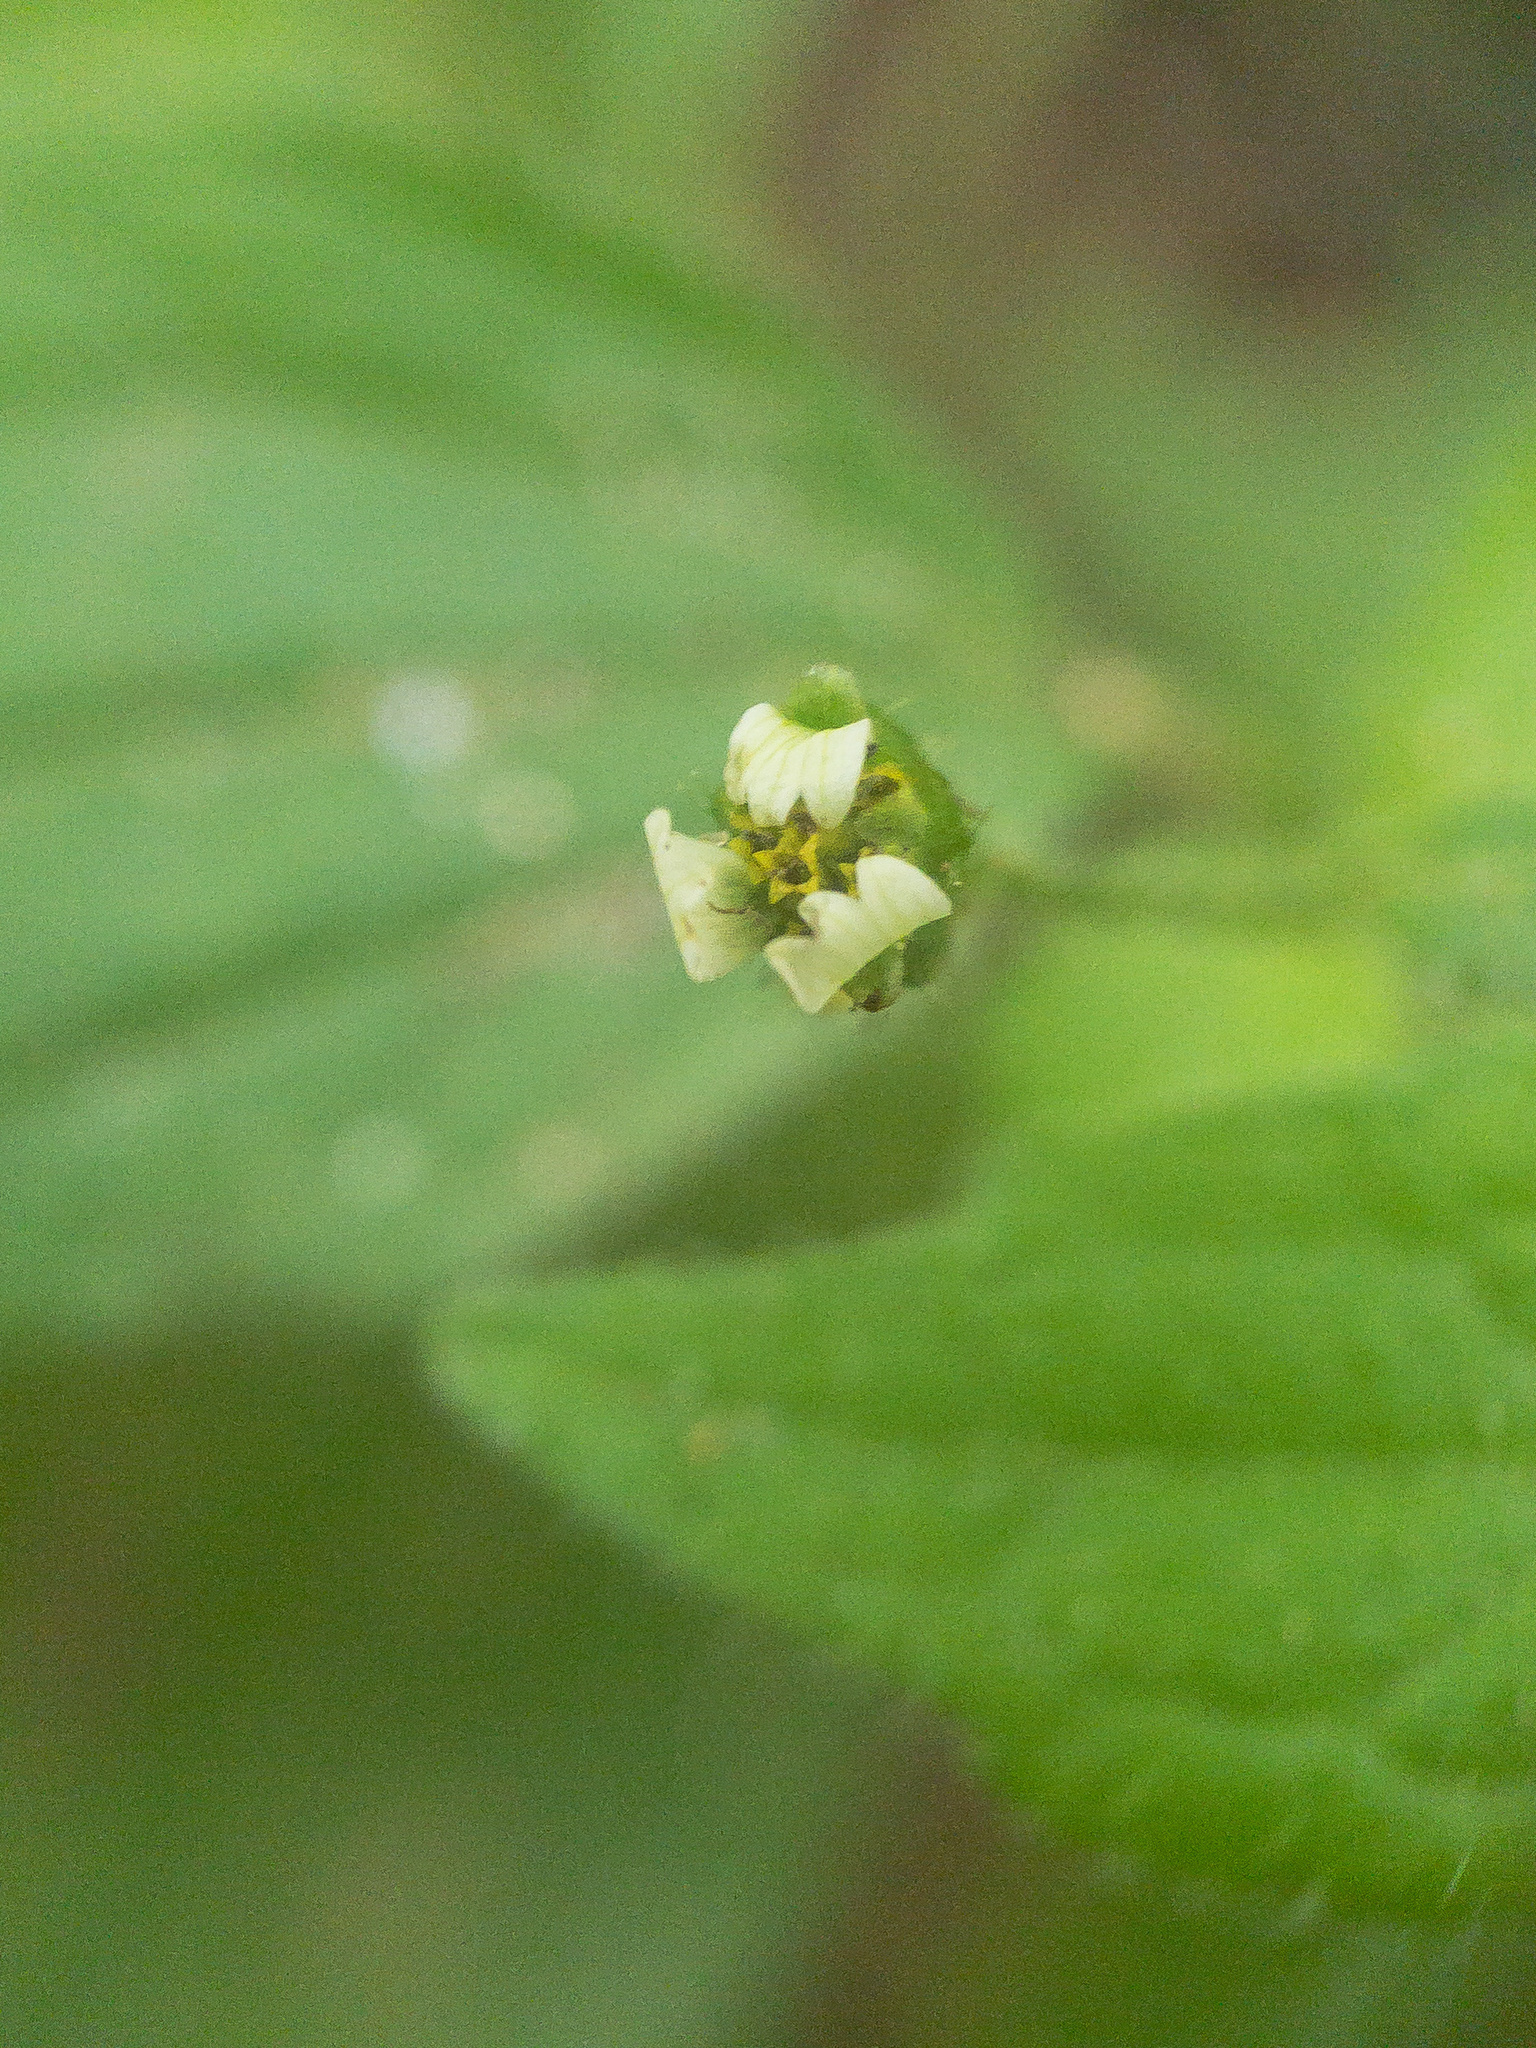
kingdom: Plantae
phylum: Tracheophyta
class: Magnoliopsida
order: Asterales
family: Asteraceae
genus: Galinsoga
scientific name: Galinsoga quadriradiata
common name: Shaggy soldier
